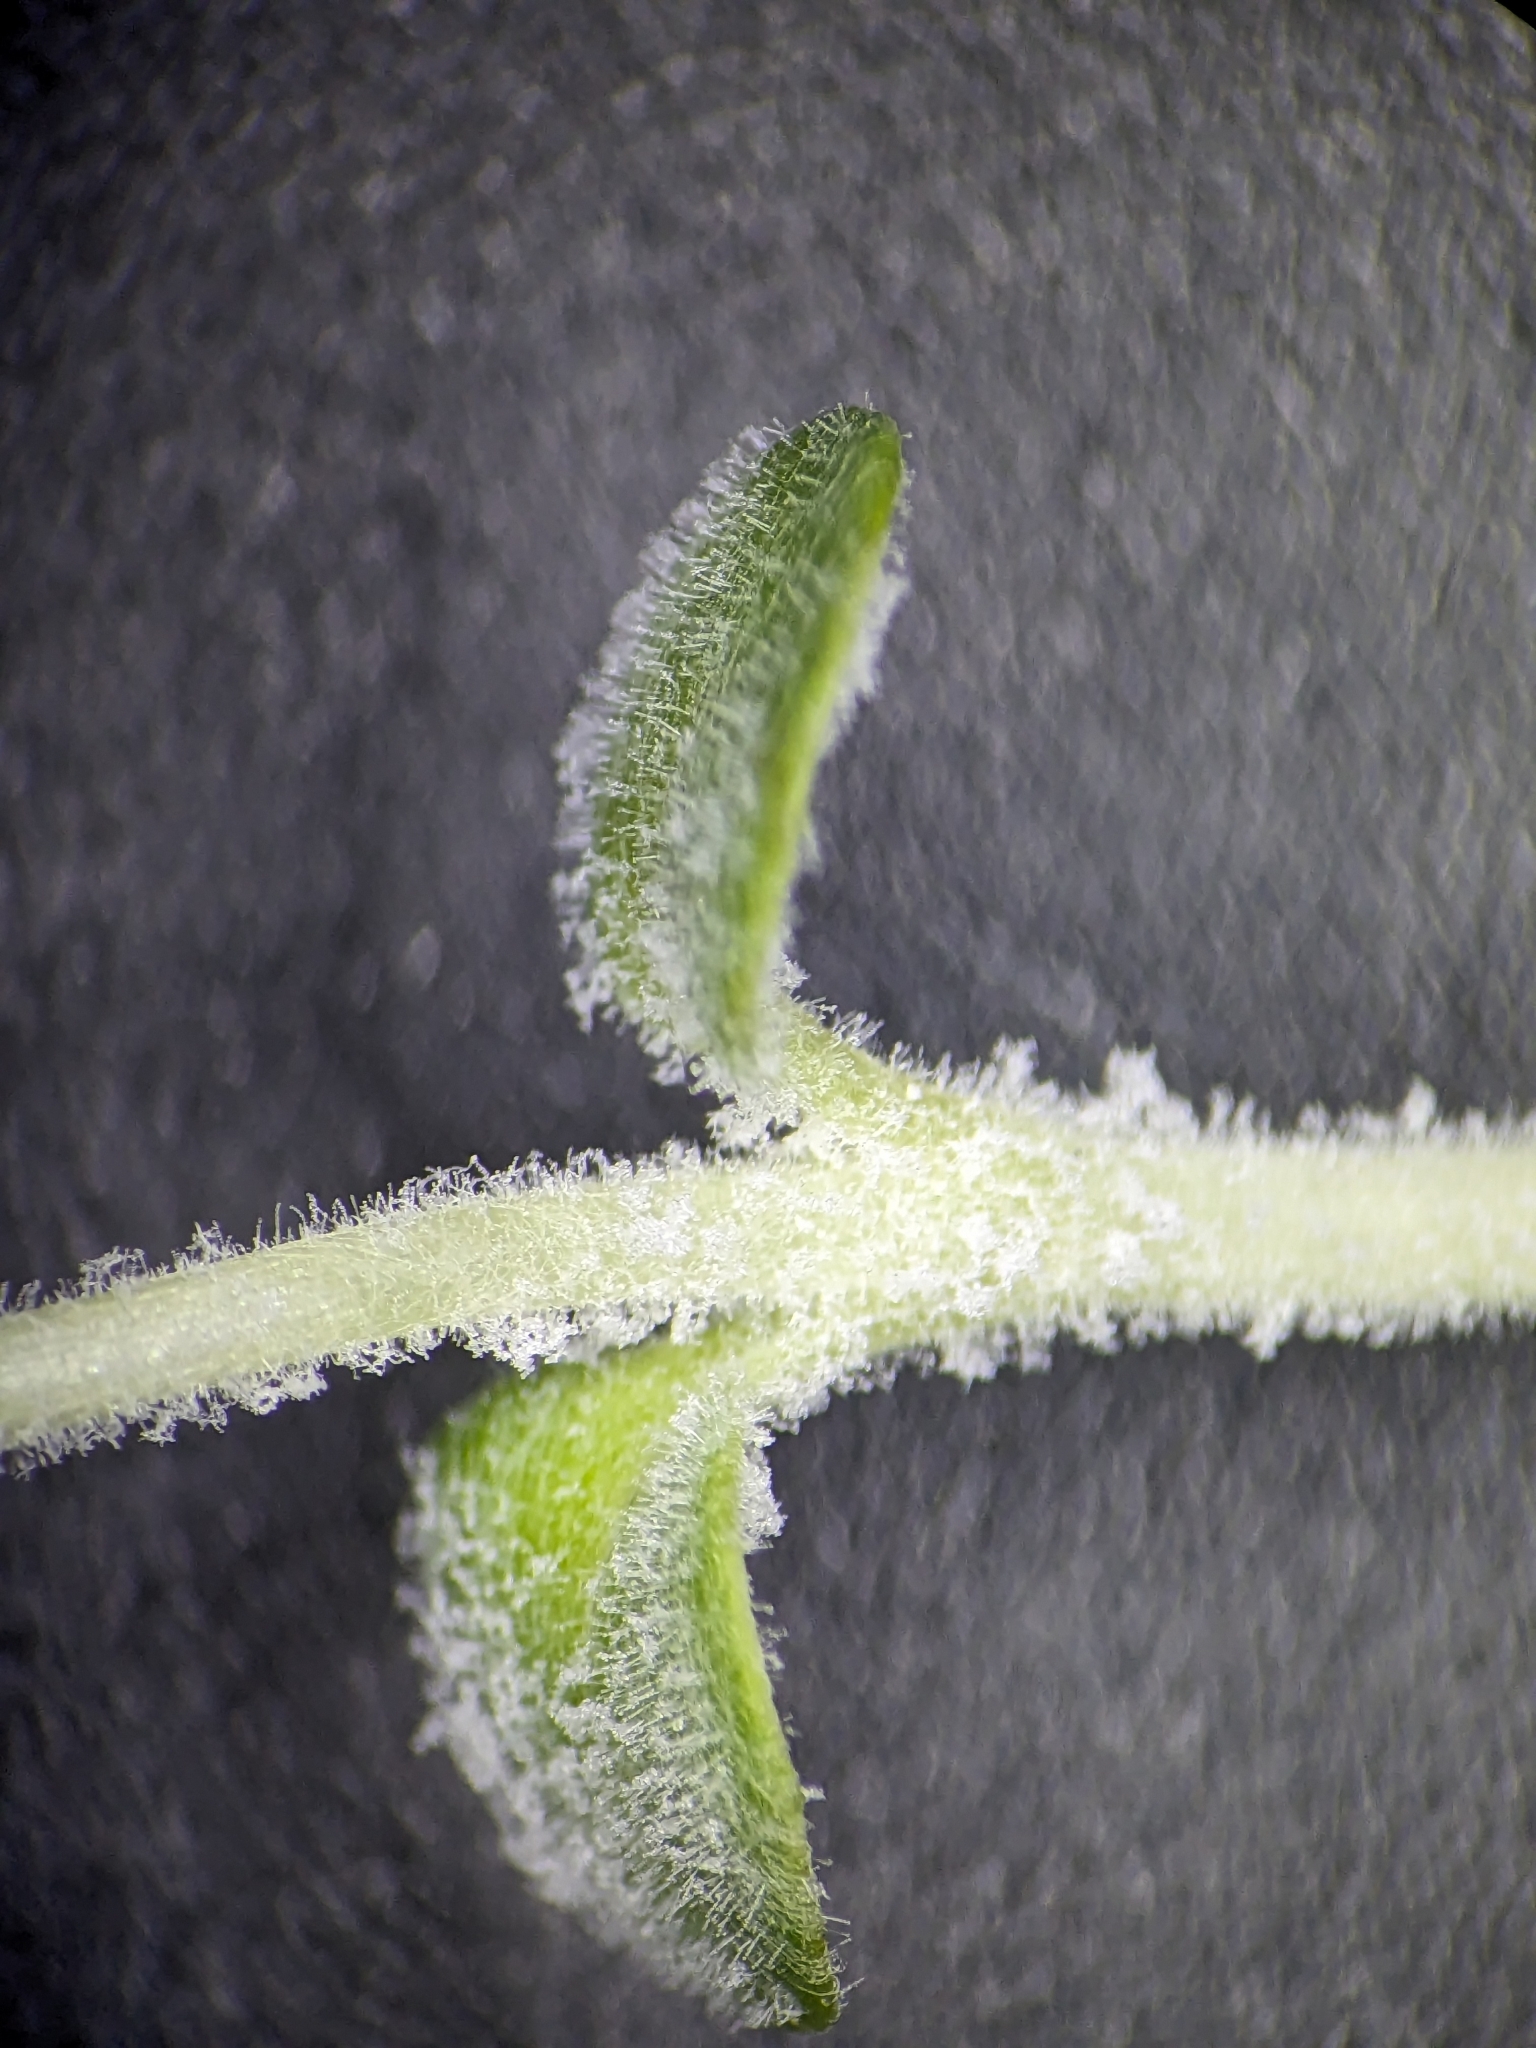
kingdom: Fungi
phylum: Ascomycota
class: Leotiomycetes
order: Helotiales
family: Erysiphaceae
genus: Podosphaera
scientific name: Podosphaera epilobii
